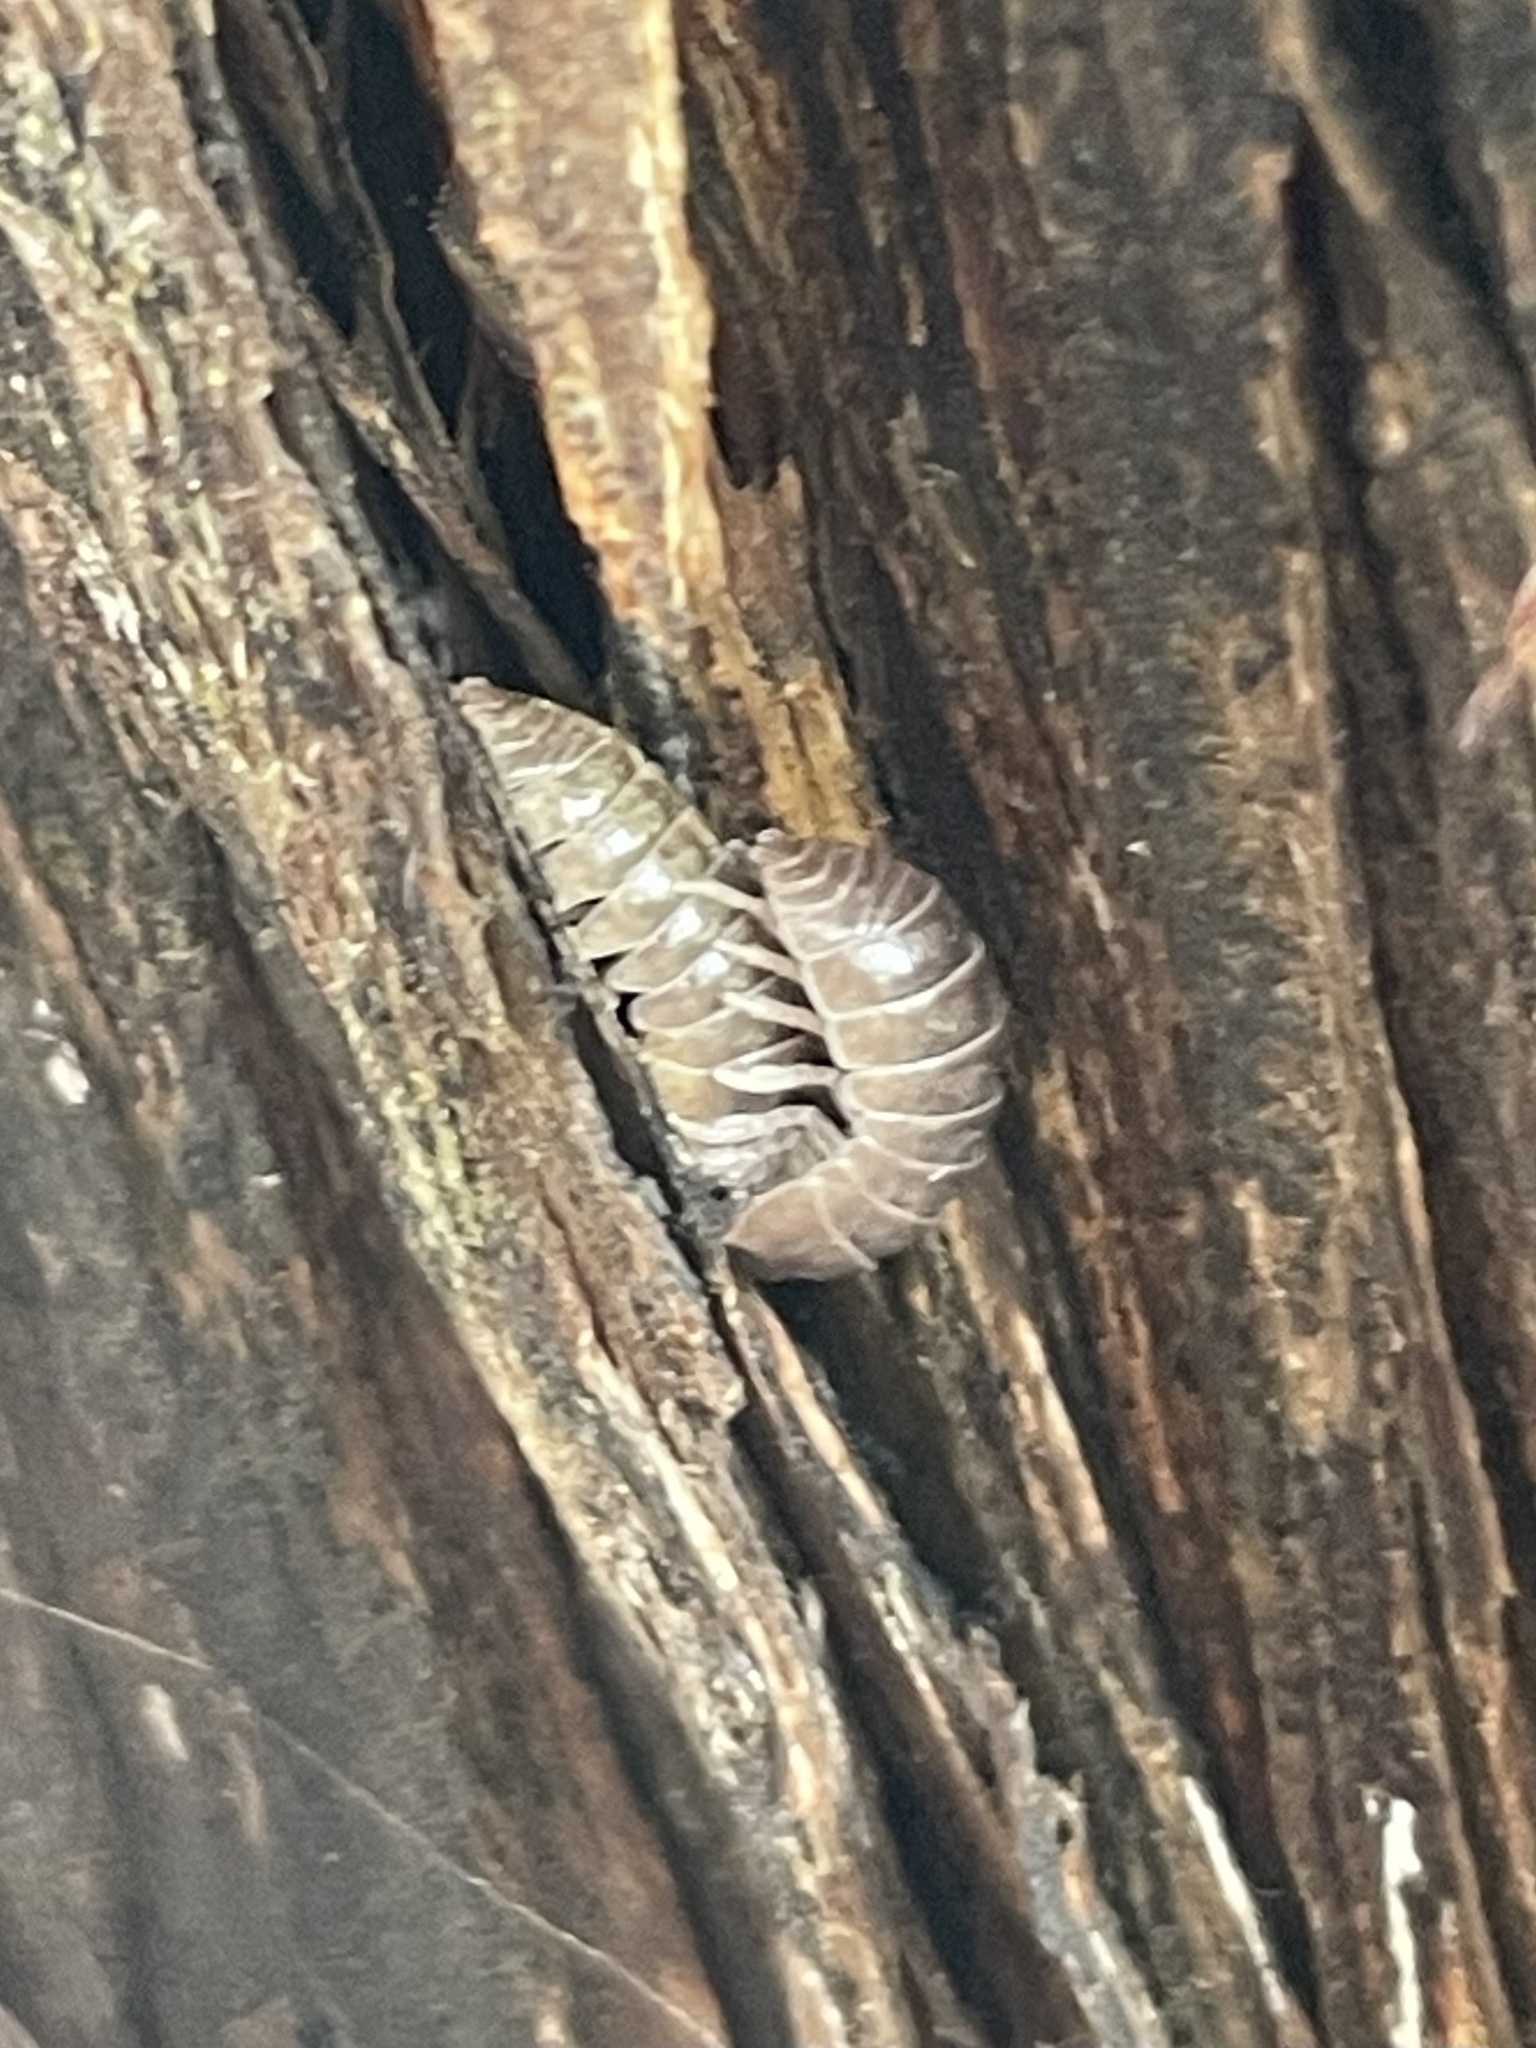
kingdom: Animalia
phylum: Arthropoda
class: Malacostraca
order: Isopoda
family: Armadillidiidae
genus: Armadillidium
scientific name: Armadillidium vulgare
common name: Common pill woodlouse
